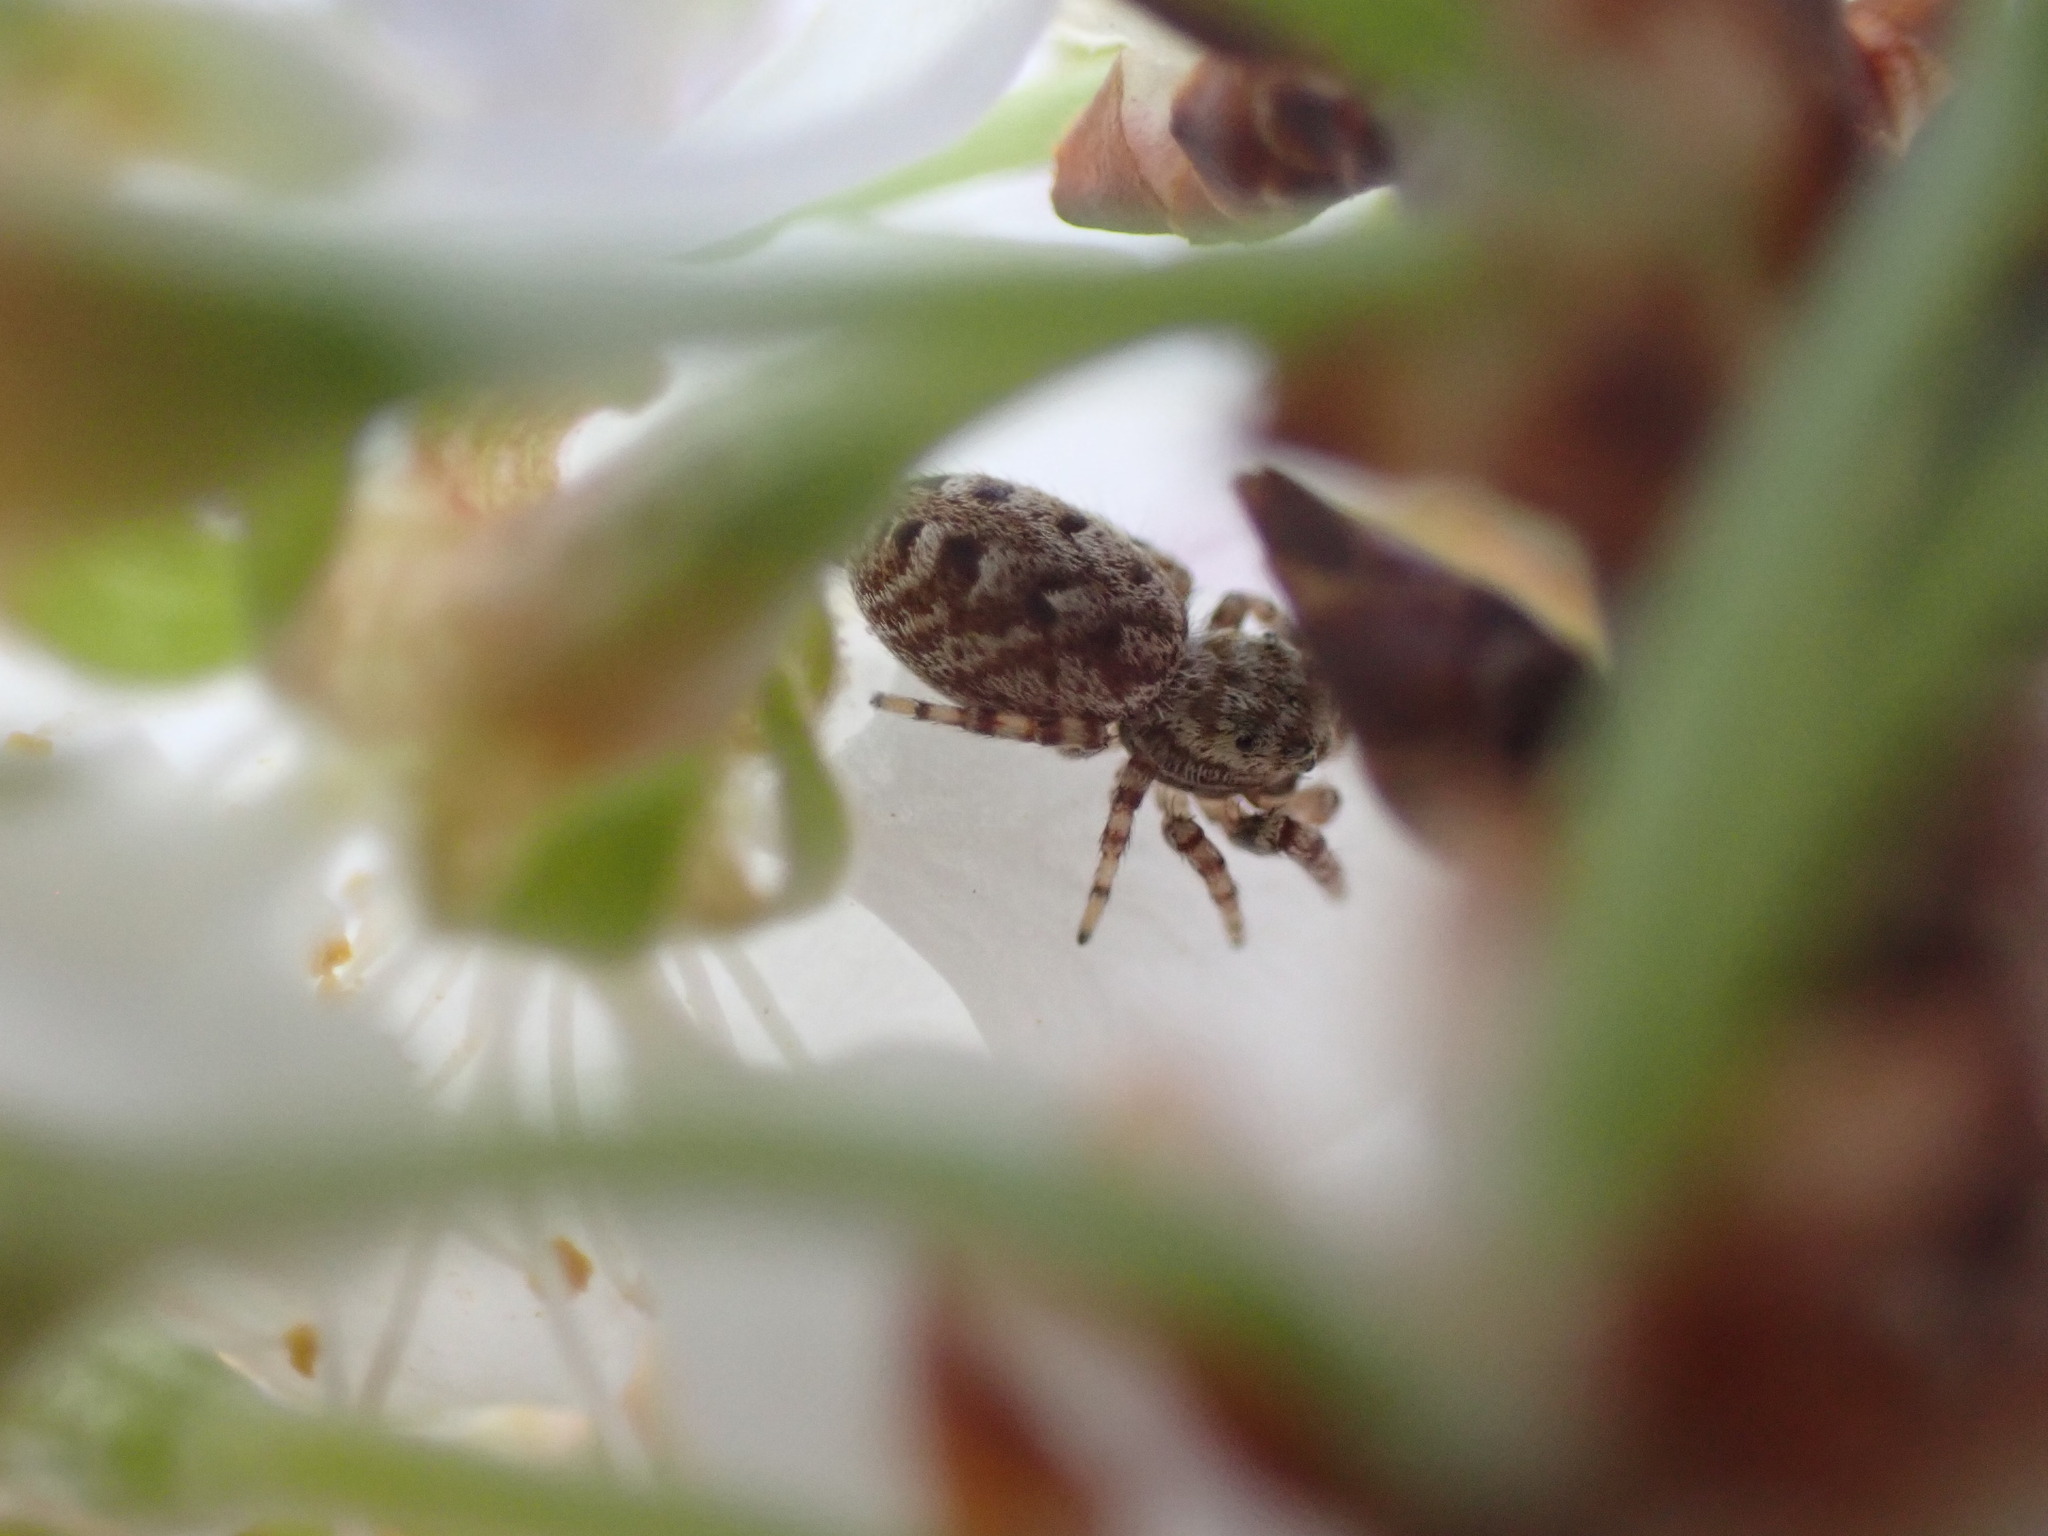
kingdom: Animalia
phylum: Arthropoda
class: Arachnida
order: Araneae
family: Salticidae
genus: Pelegrina
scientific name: Pelegrina galathea
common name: Jumping spiders
